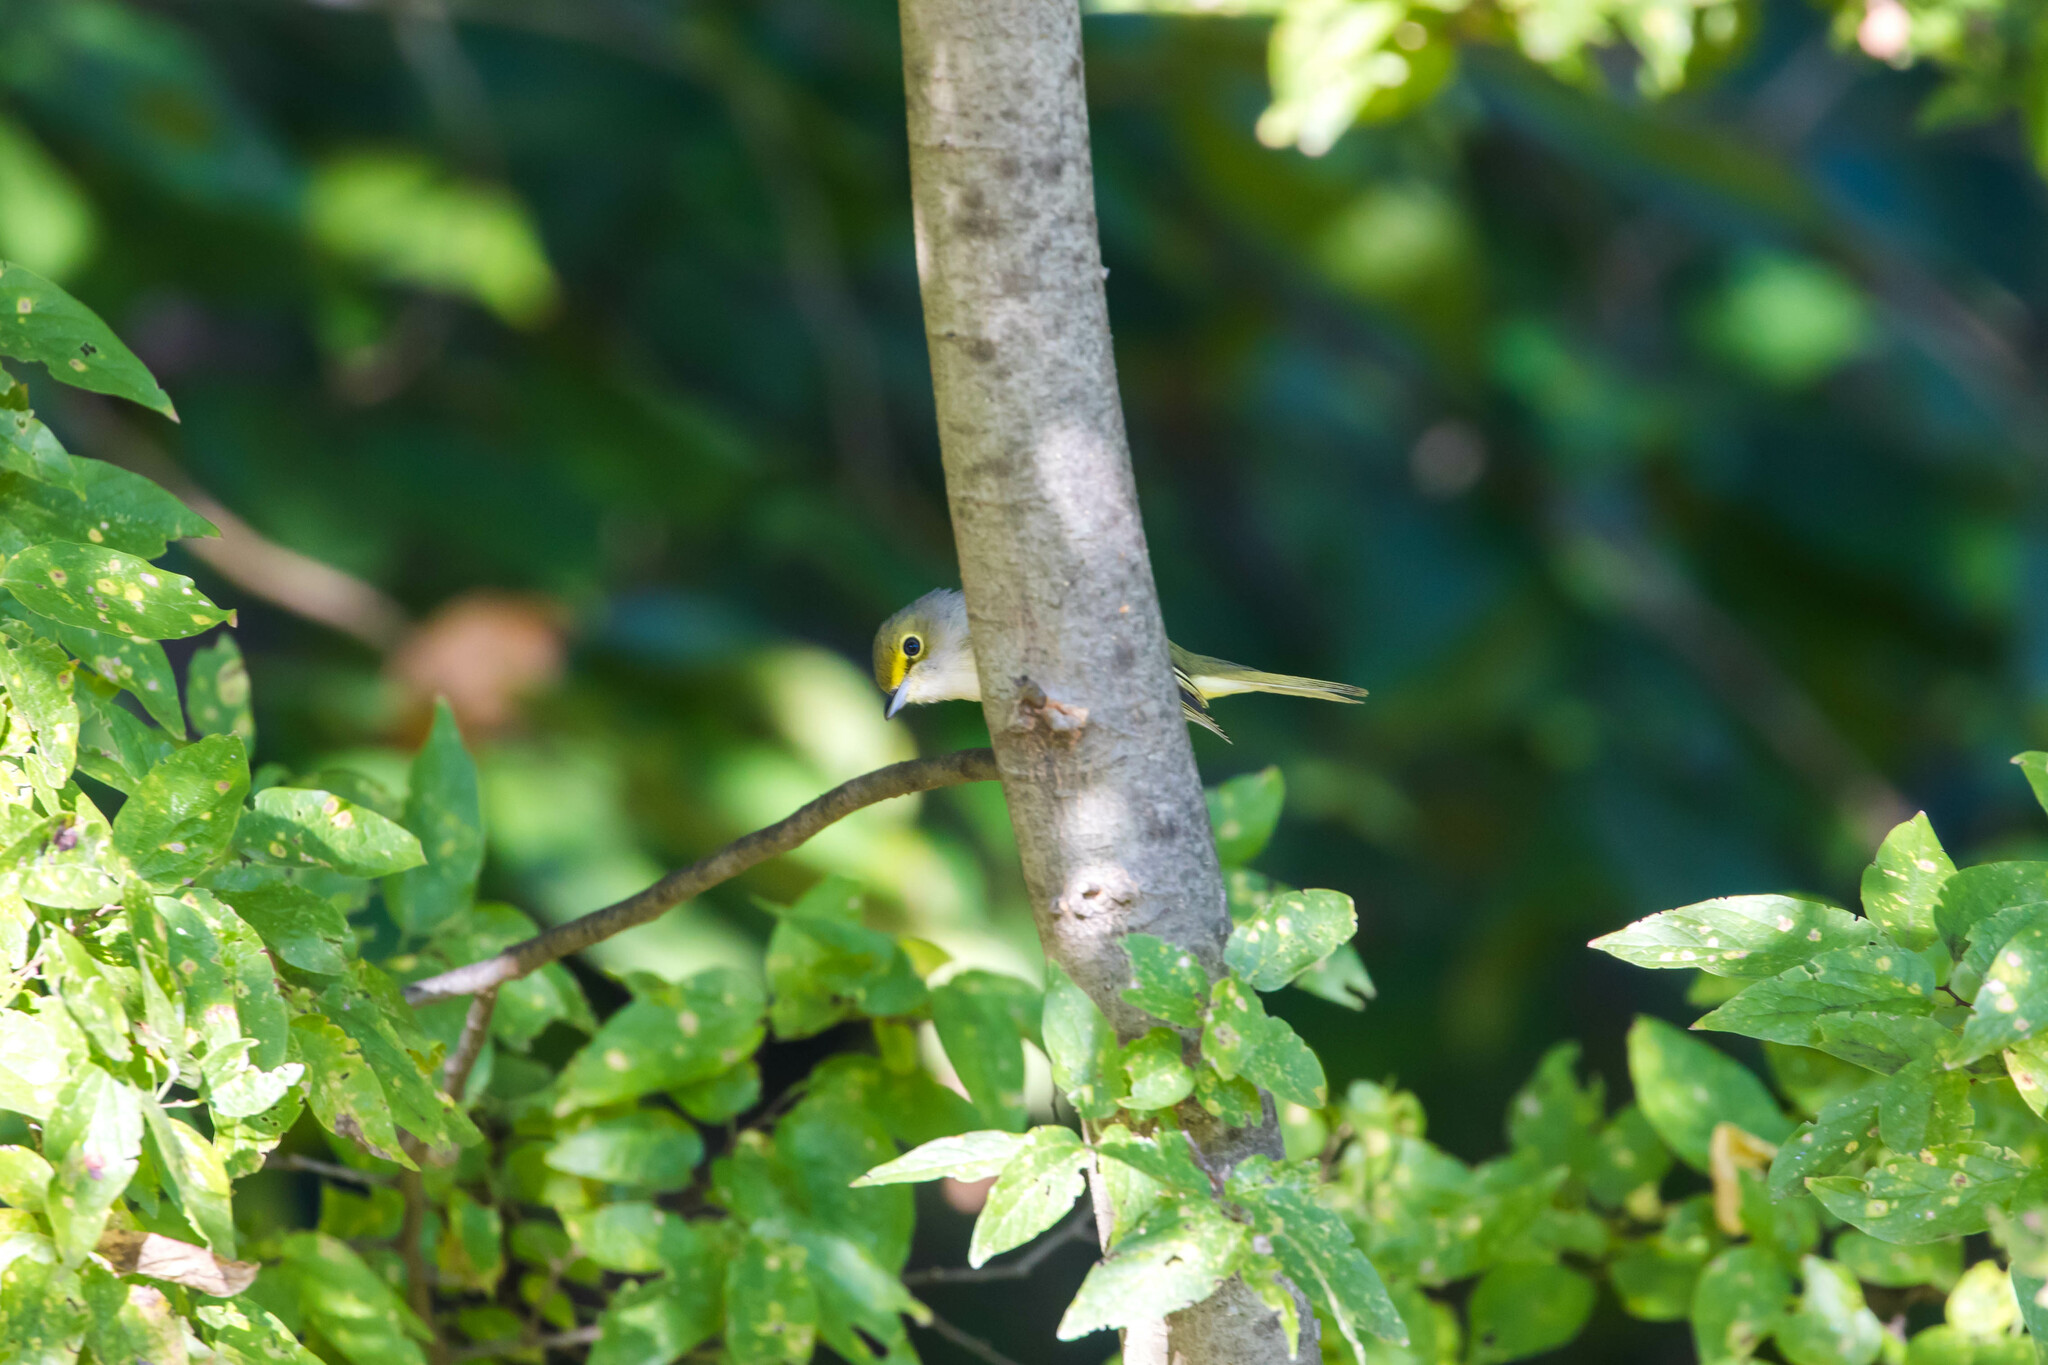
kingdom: Animalia
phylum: Chordata
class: Aves
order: Passeriformes
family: Vireonidae
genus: Vireo
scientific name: Vireo griseus
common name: White-eyed vireo
